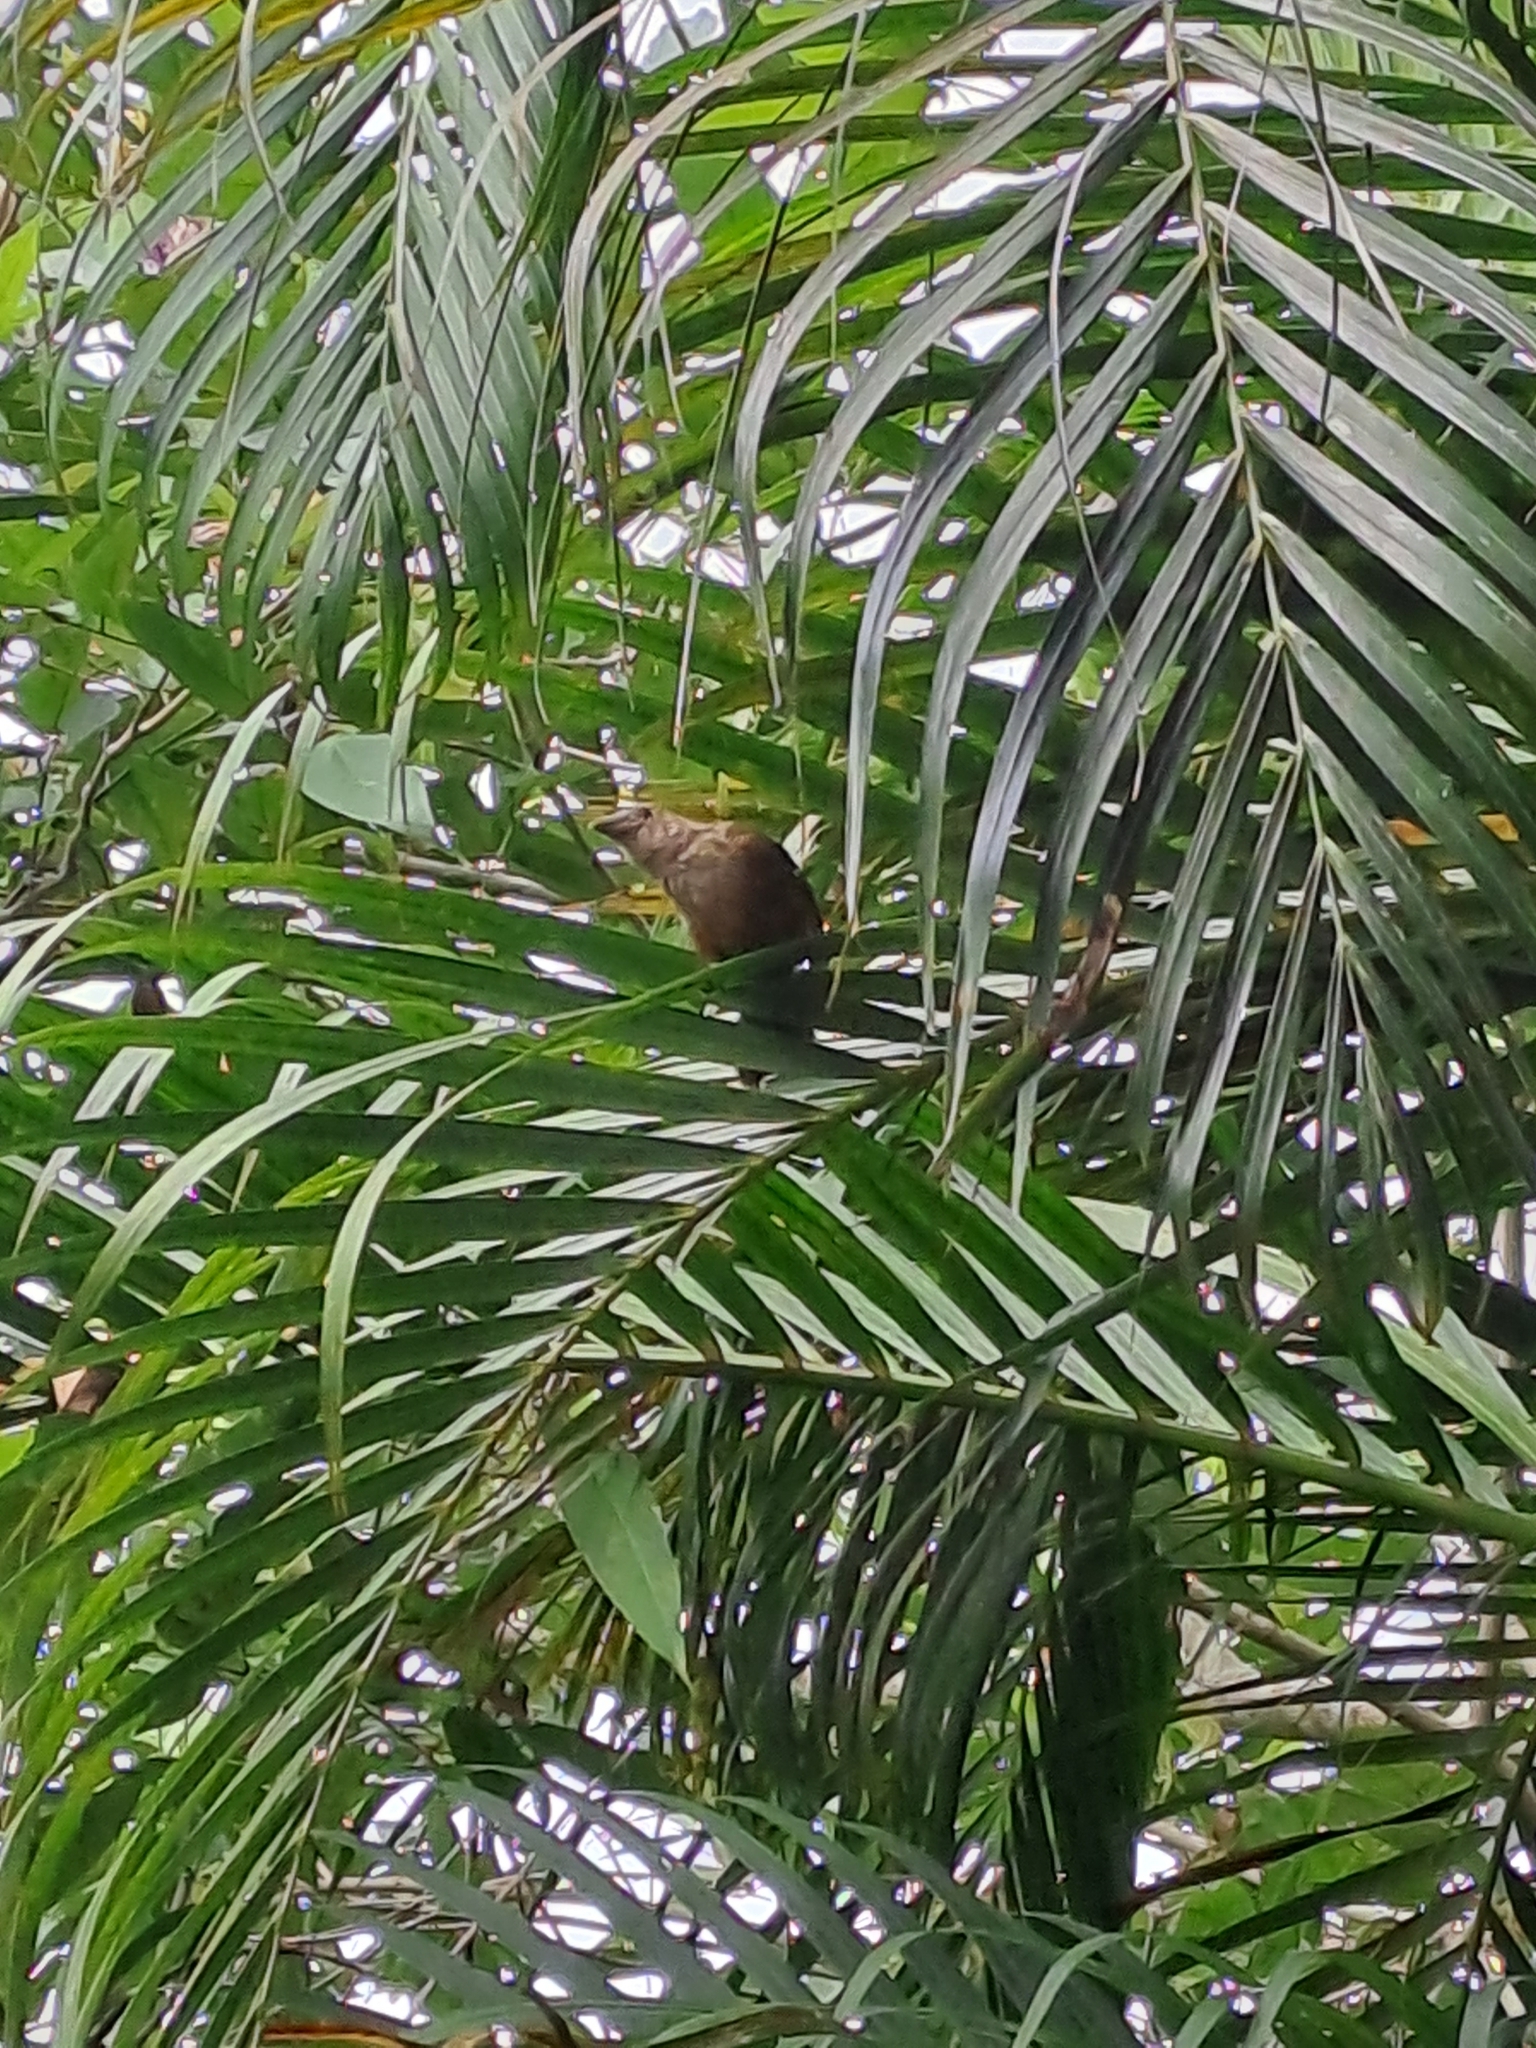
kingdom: Animalia
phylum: Chordata
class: Aves
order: Passeriformes
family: Thraupidae
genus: Ramphocelus
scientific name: Ramphocelus bresilia
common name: Brazilian tanager
